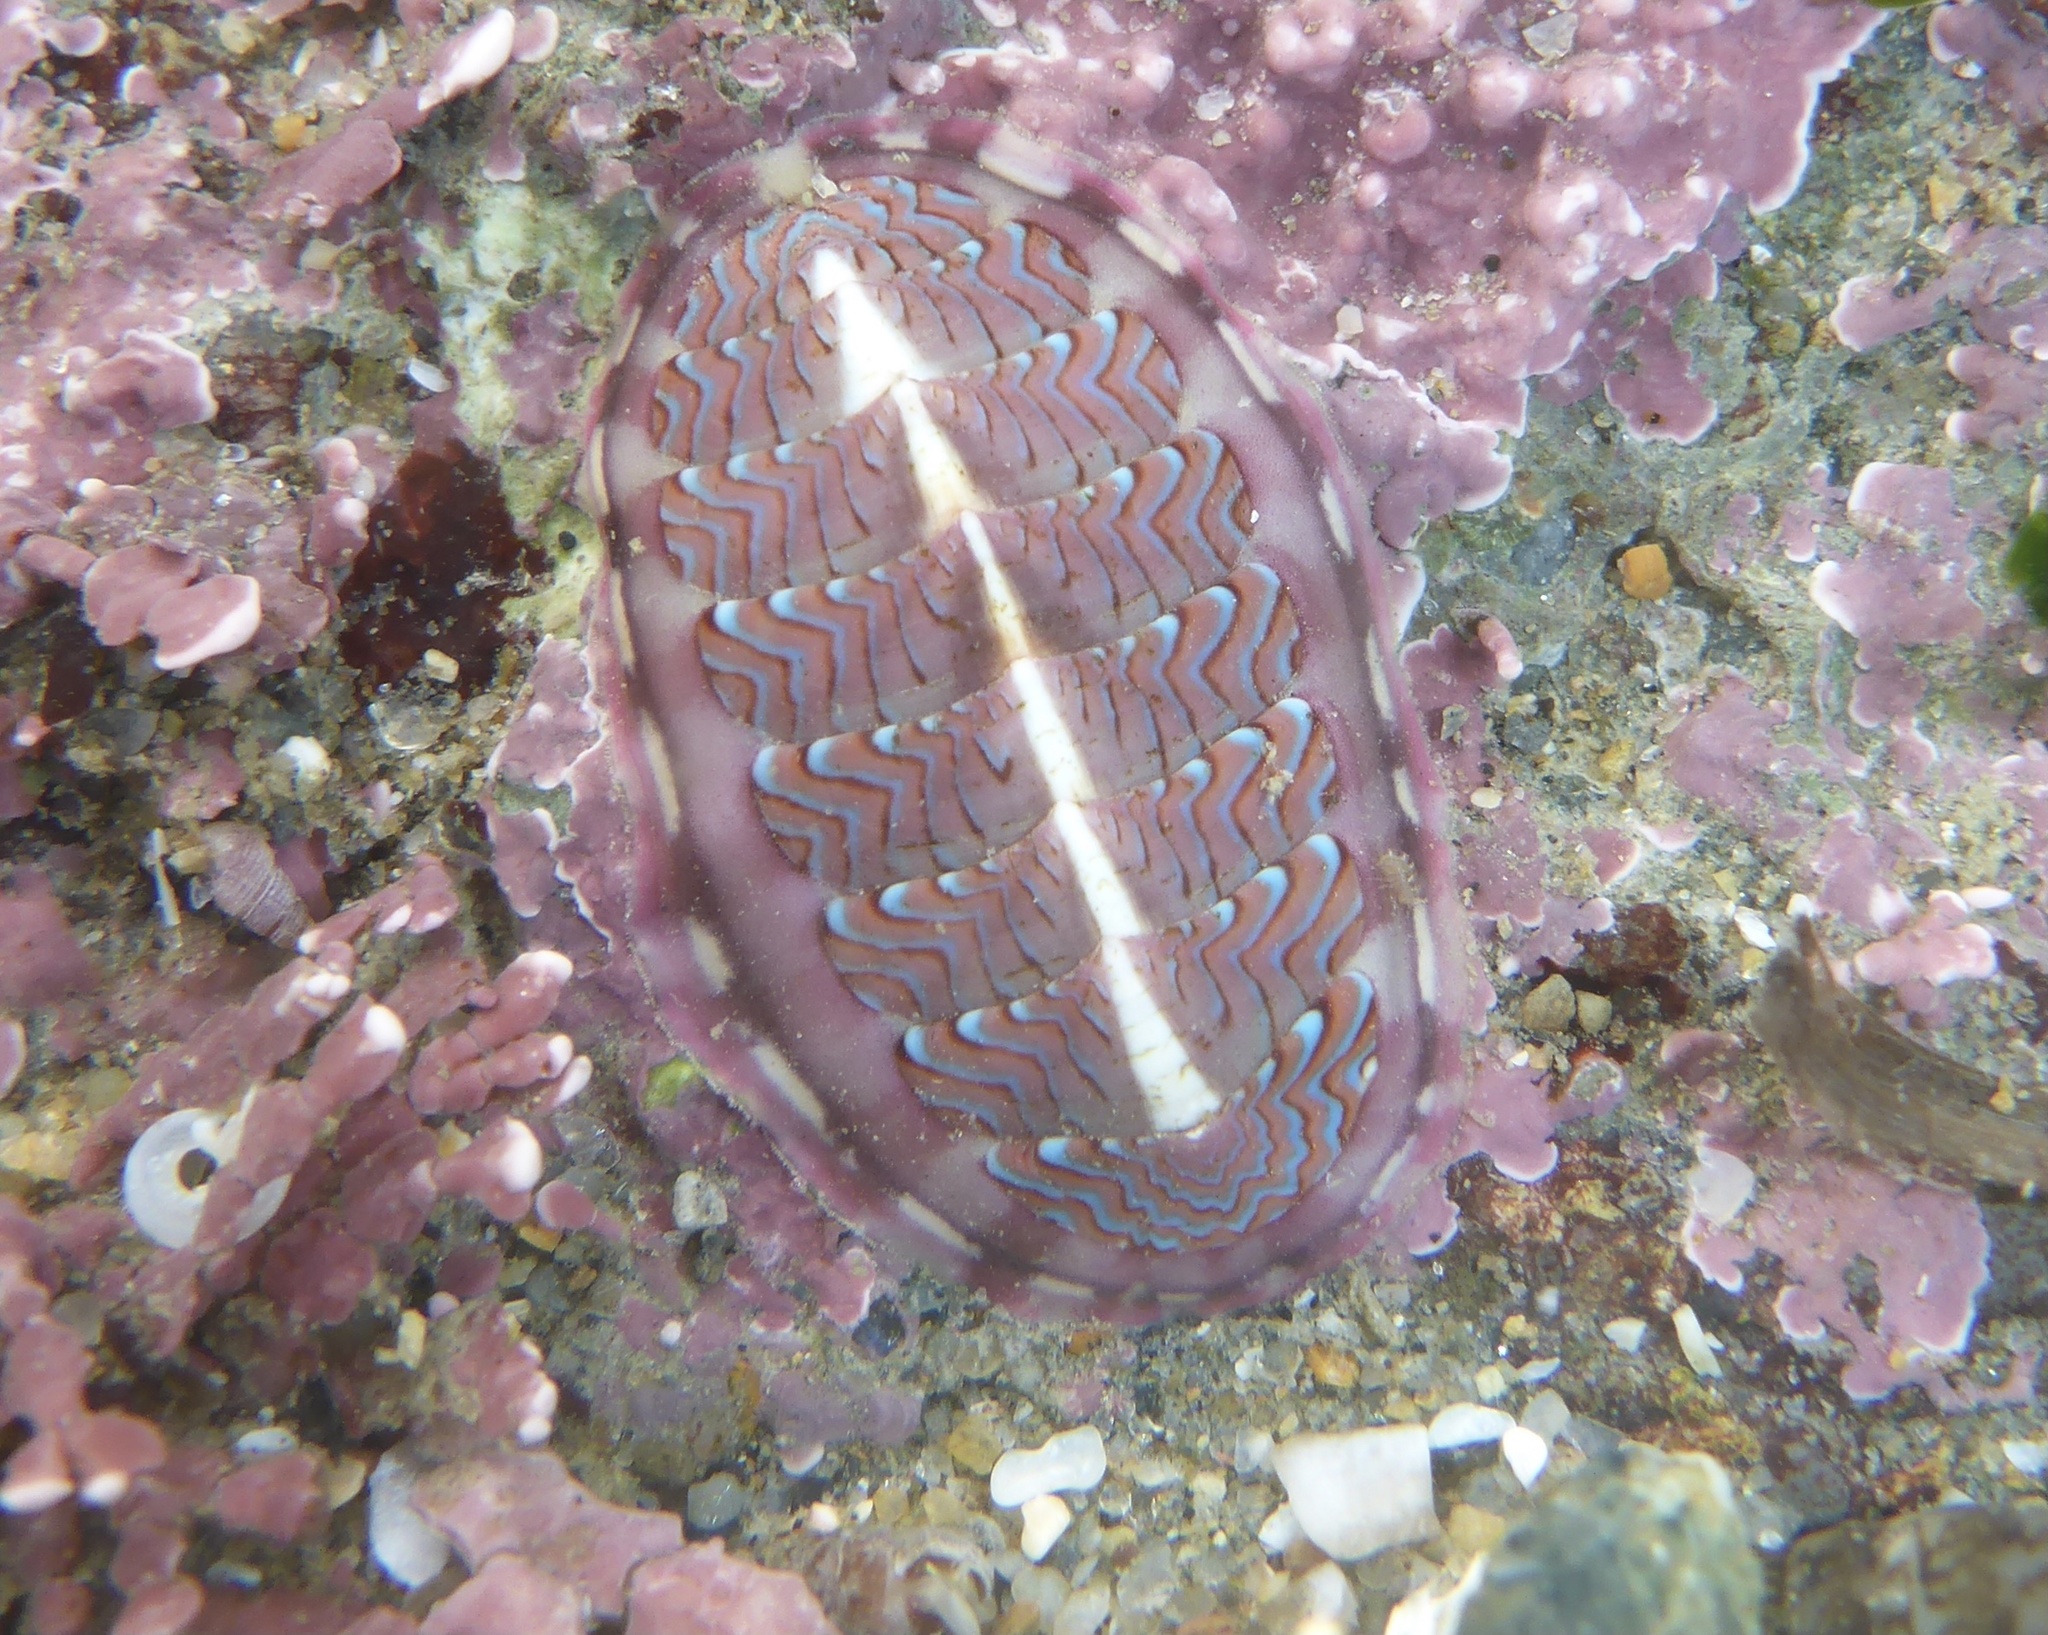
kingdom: Animalia
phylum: Mollusca
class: Polyplacophora
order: Chitonida
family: Tonicellidae
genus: Tonicella
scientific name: Tonicella lokii
